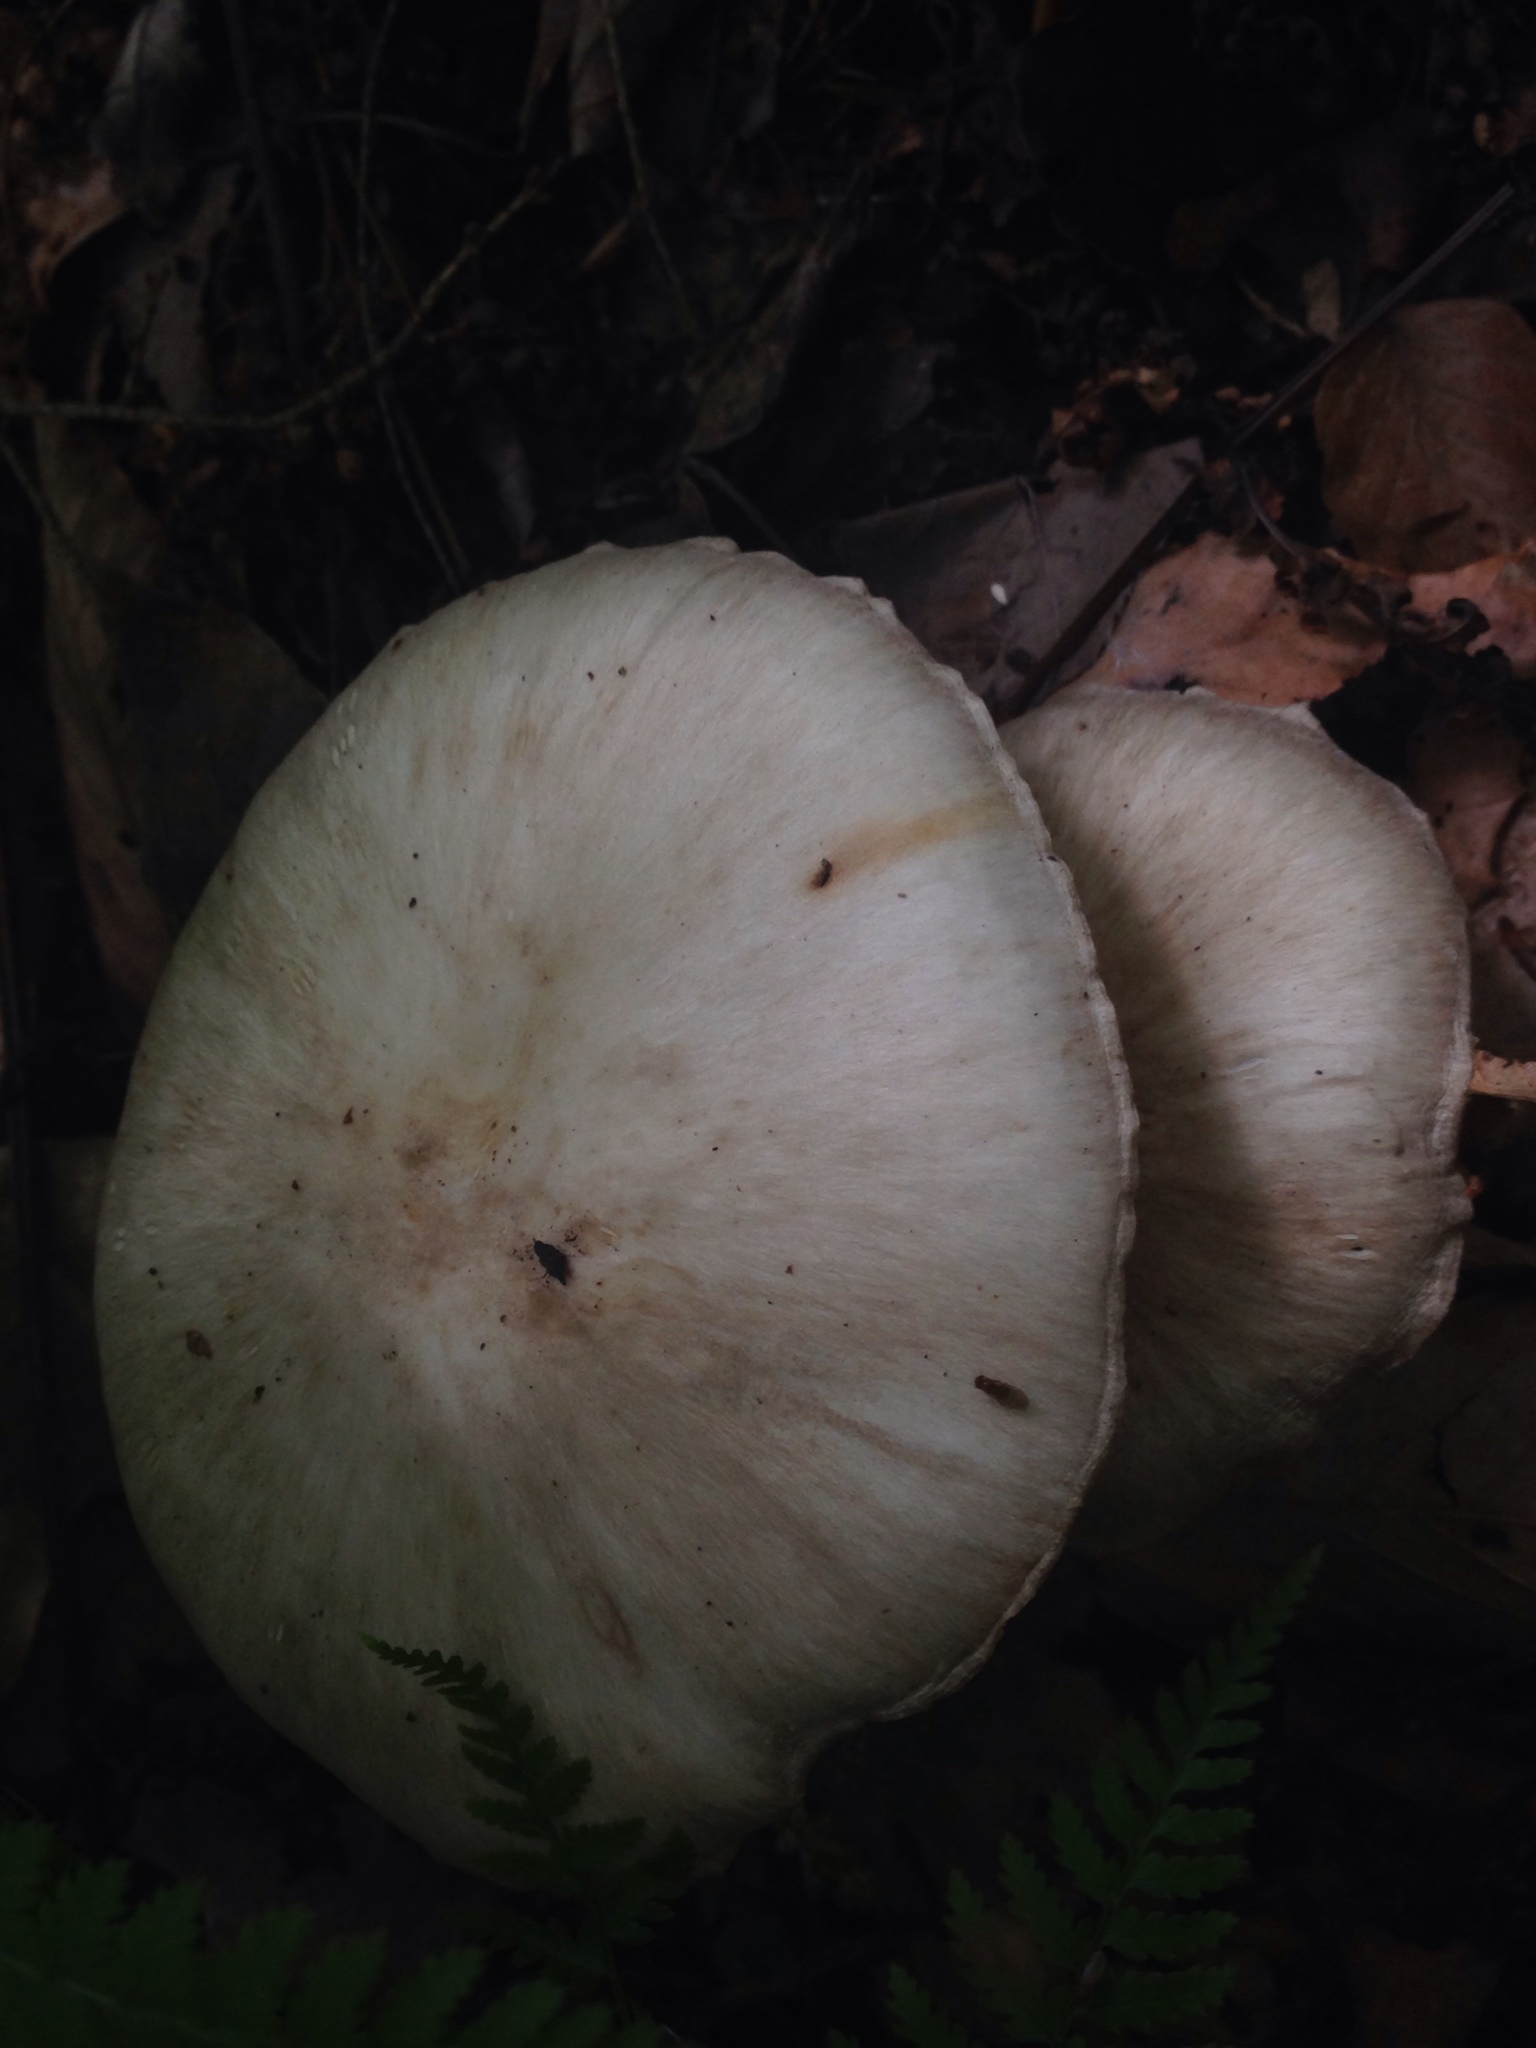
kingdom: Fungi
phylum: Basidiomycota
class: Agaricomycetes
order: Agaricales
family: Tricholomataceae
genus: Megacollybia
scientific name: Megacollybia rodmanii
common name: Eastern american platterful mushroom
